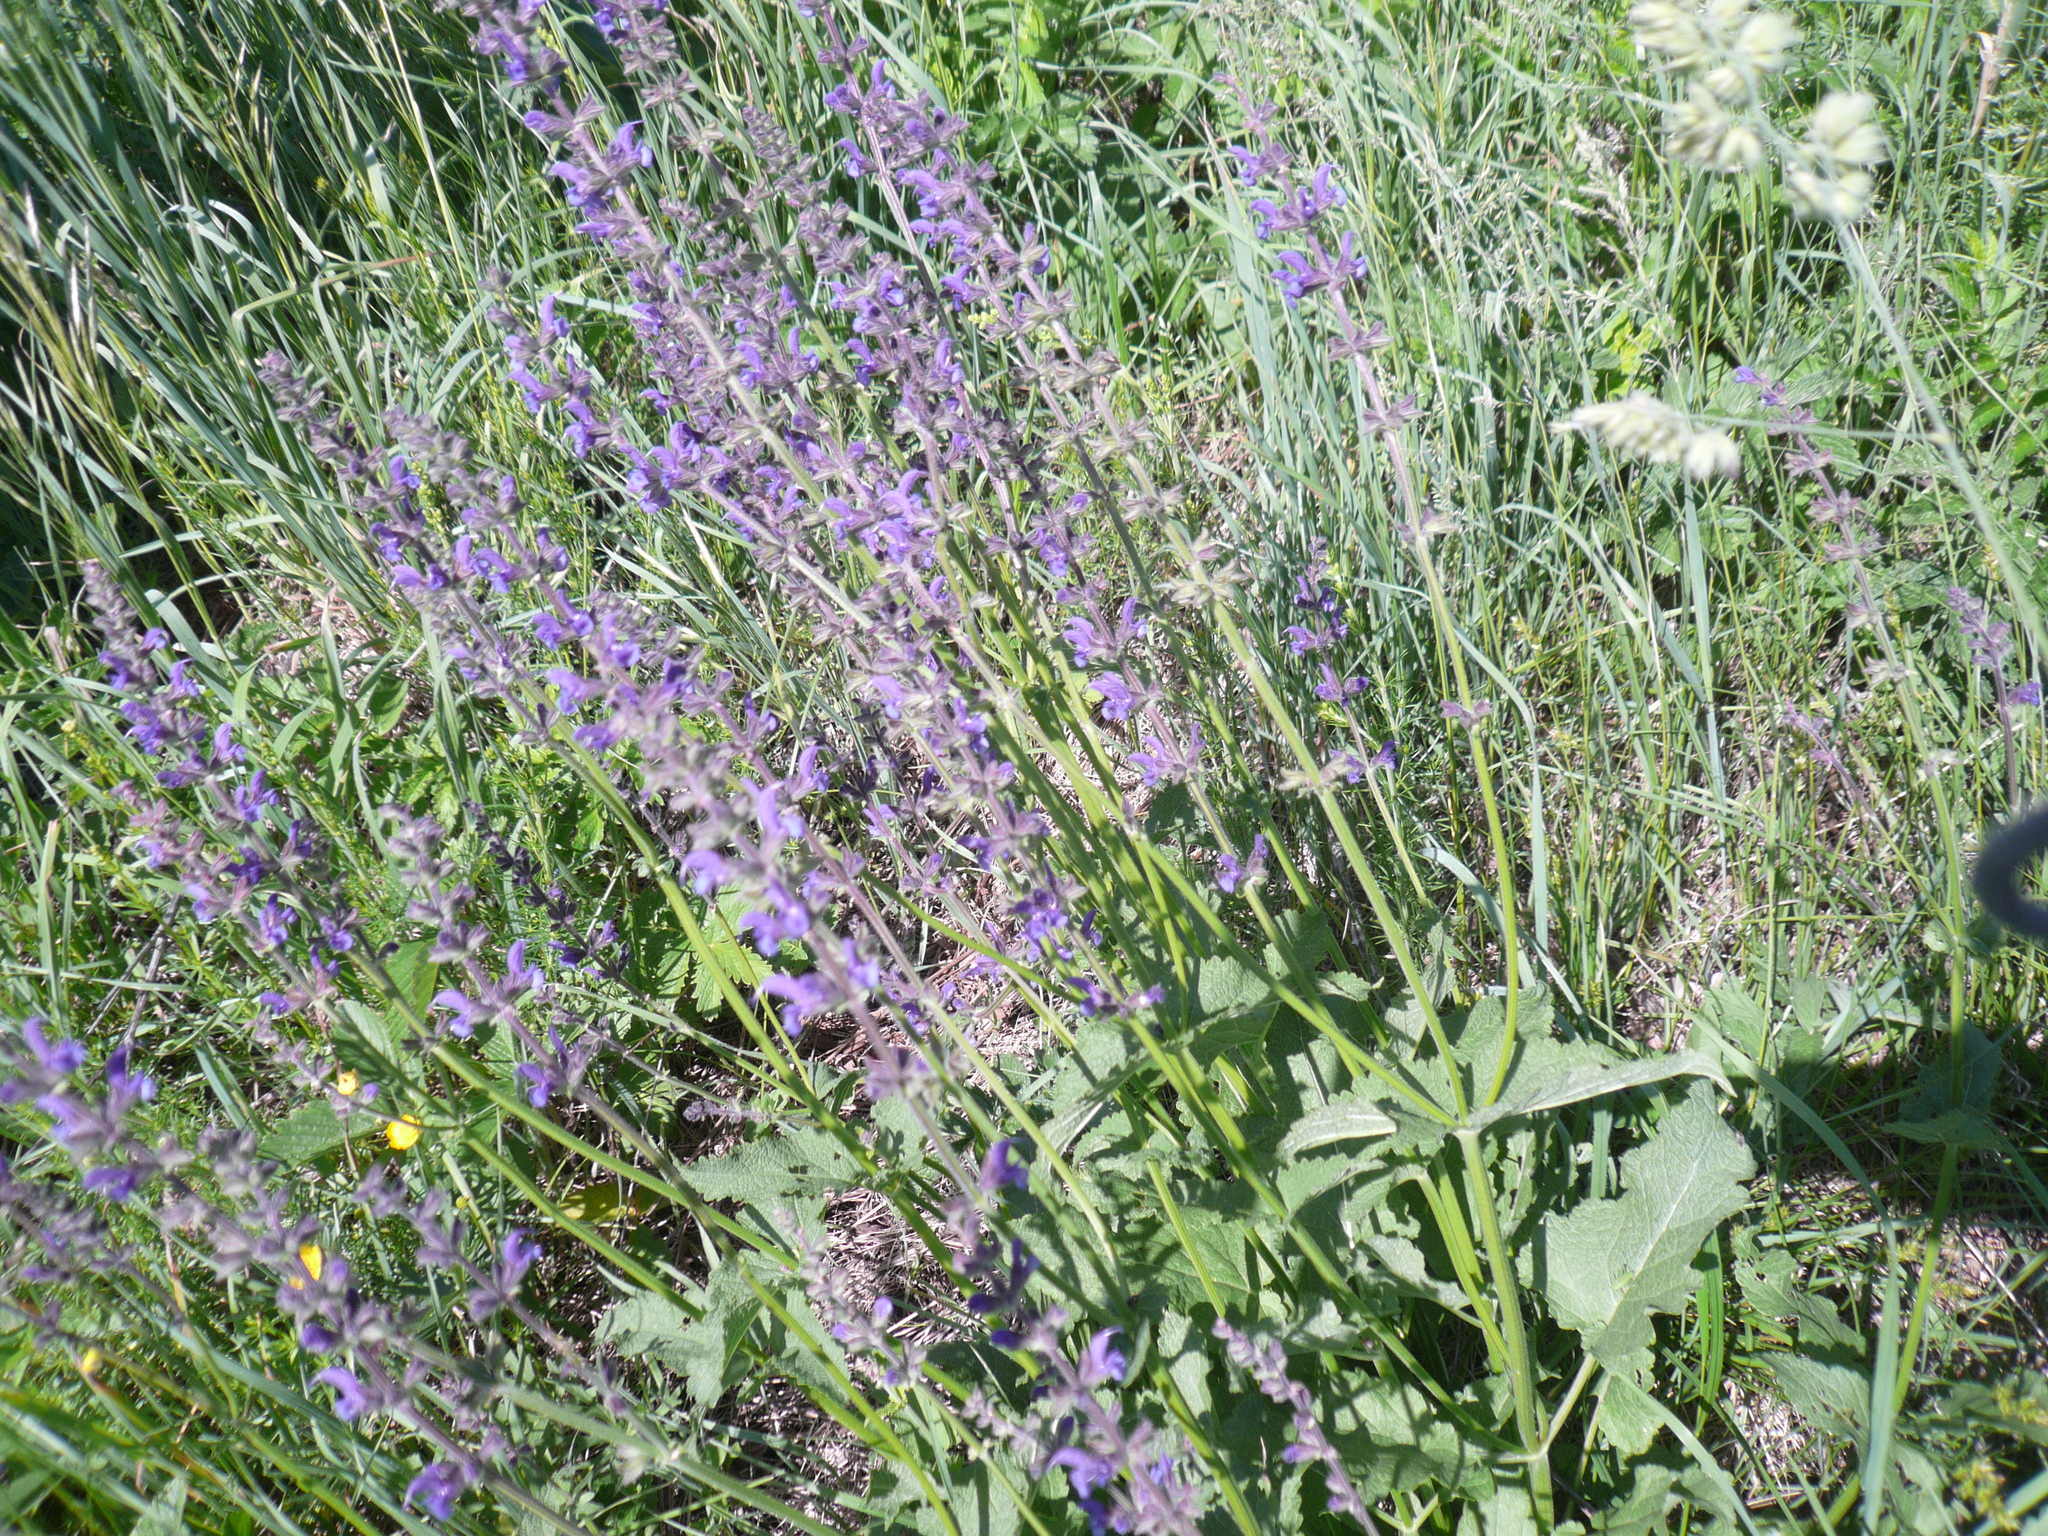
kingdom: Plantae
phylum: Tracheophyta
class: Magnoliopsida
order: Lamiales
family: Lamiaceae
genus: Salvia
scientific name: Salvia dumetorum
